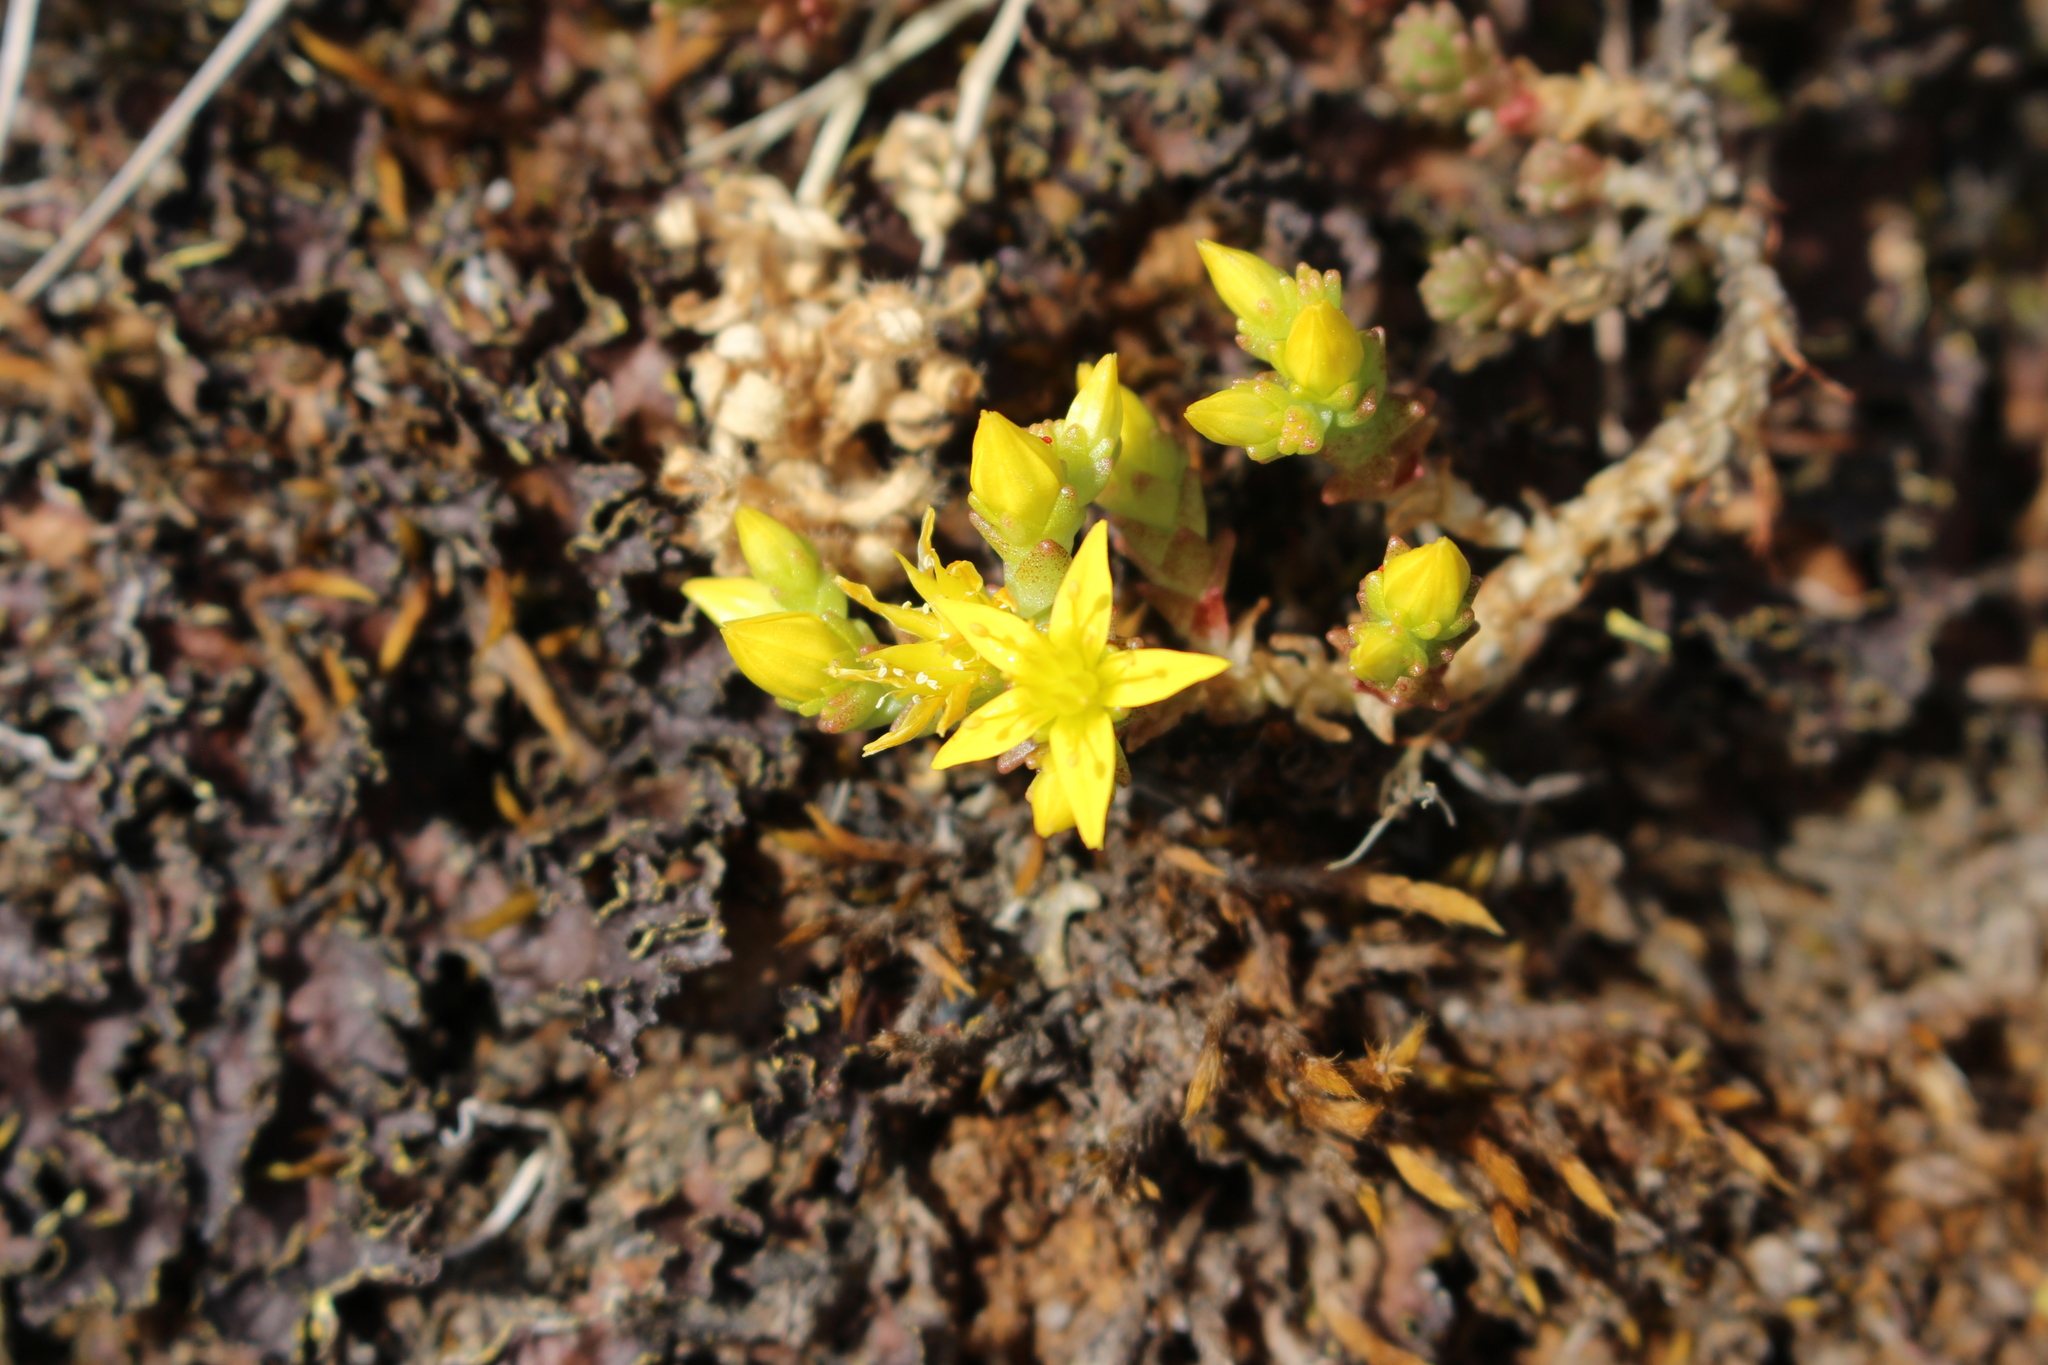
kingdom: Plantae
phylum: Tracheophyta
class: Magnoliopsida
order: Saxifragales
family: Crassulaceae
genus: Sedum
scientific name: Sedum acre
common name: Biting stonecrop
